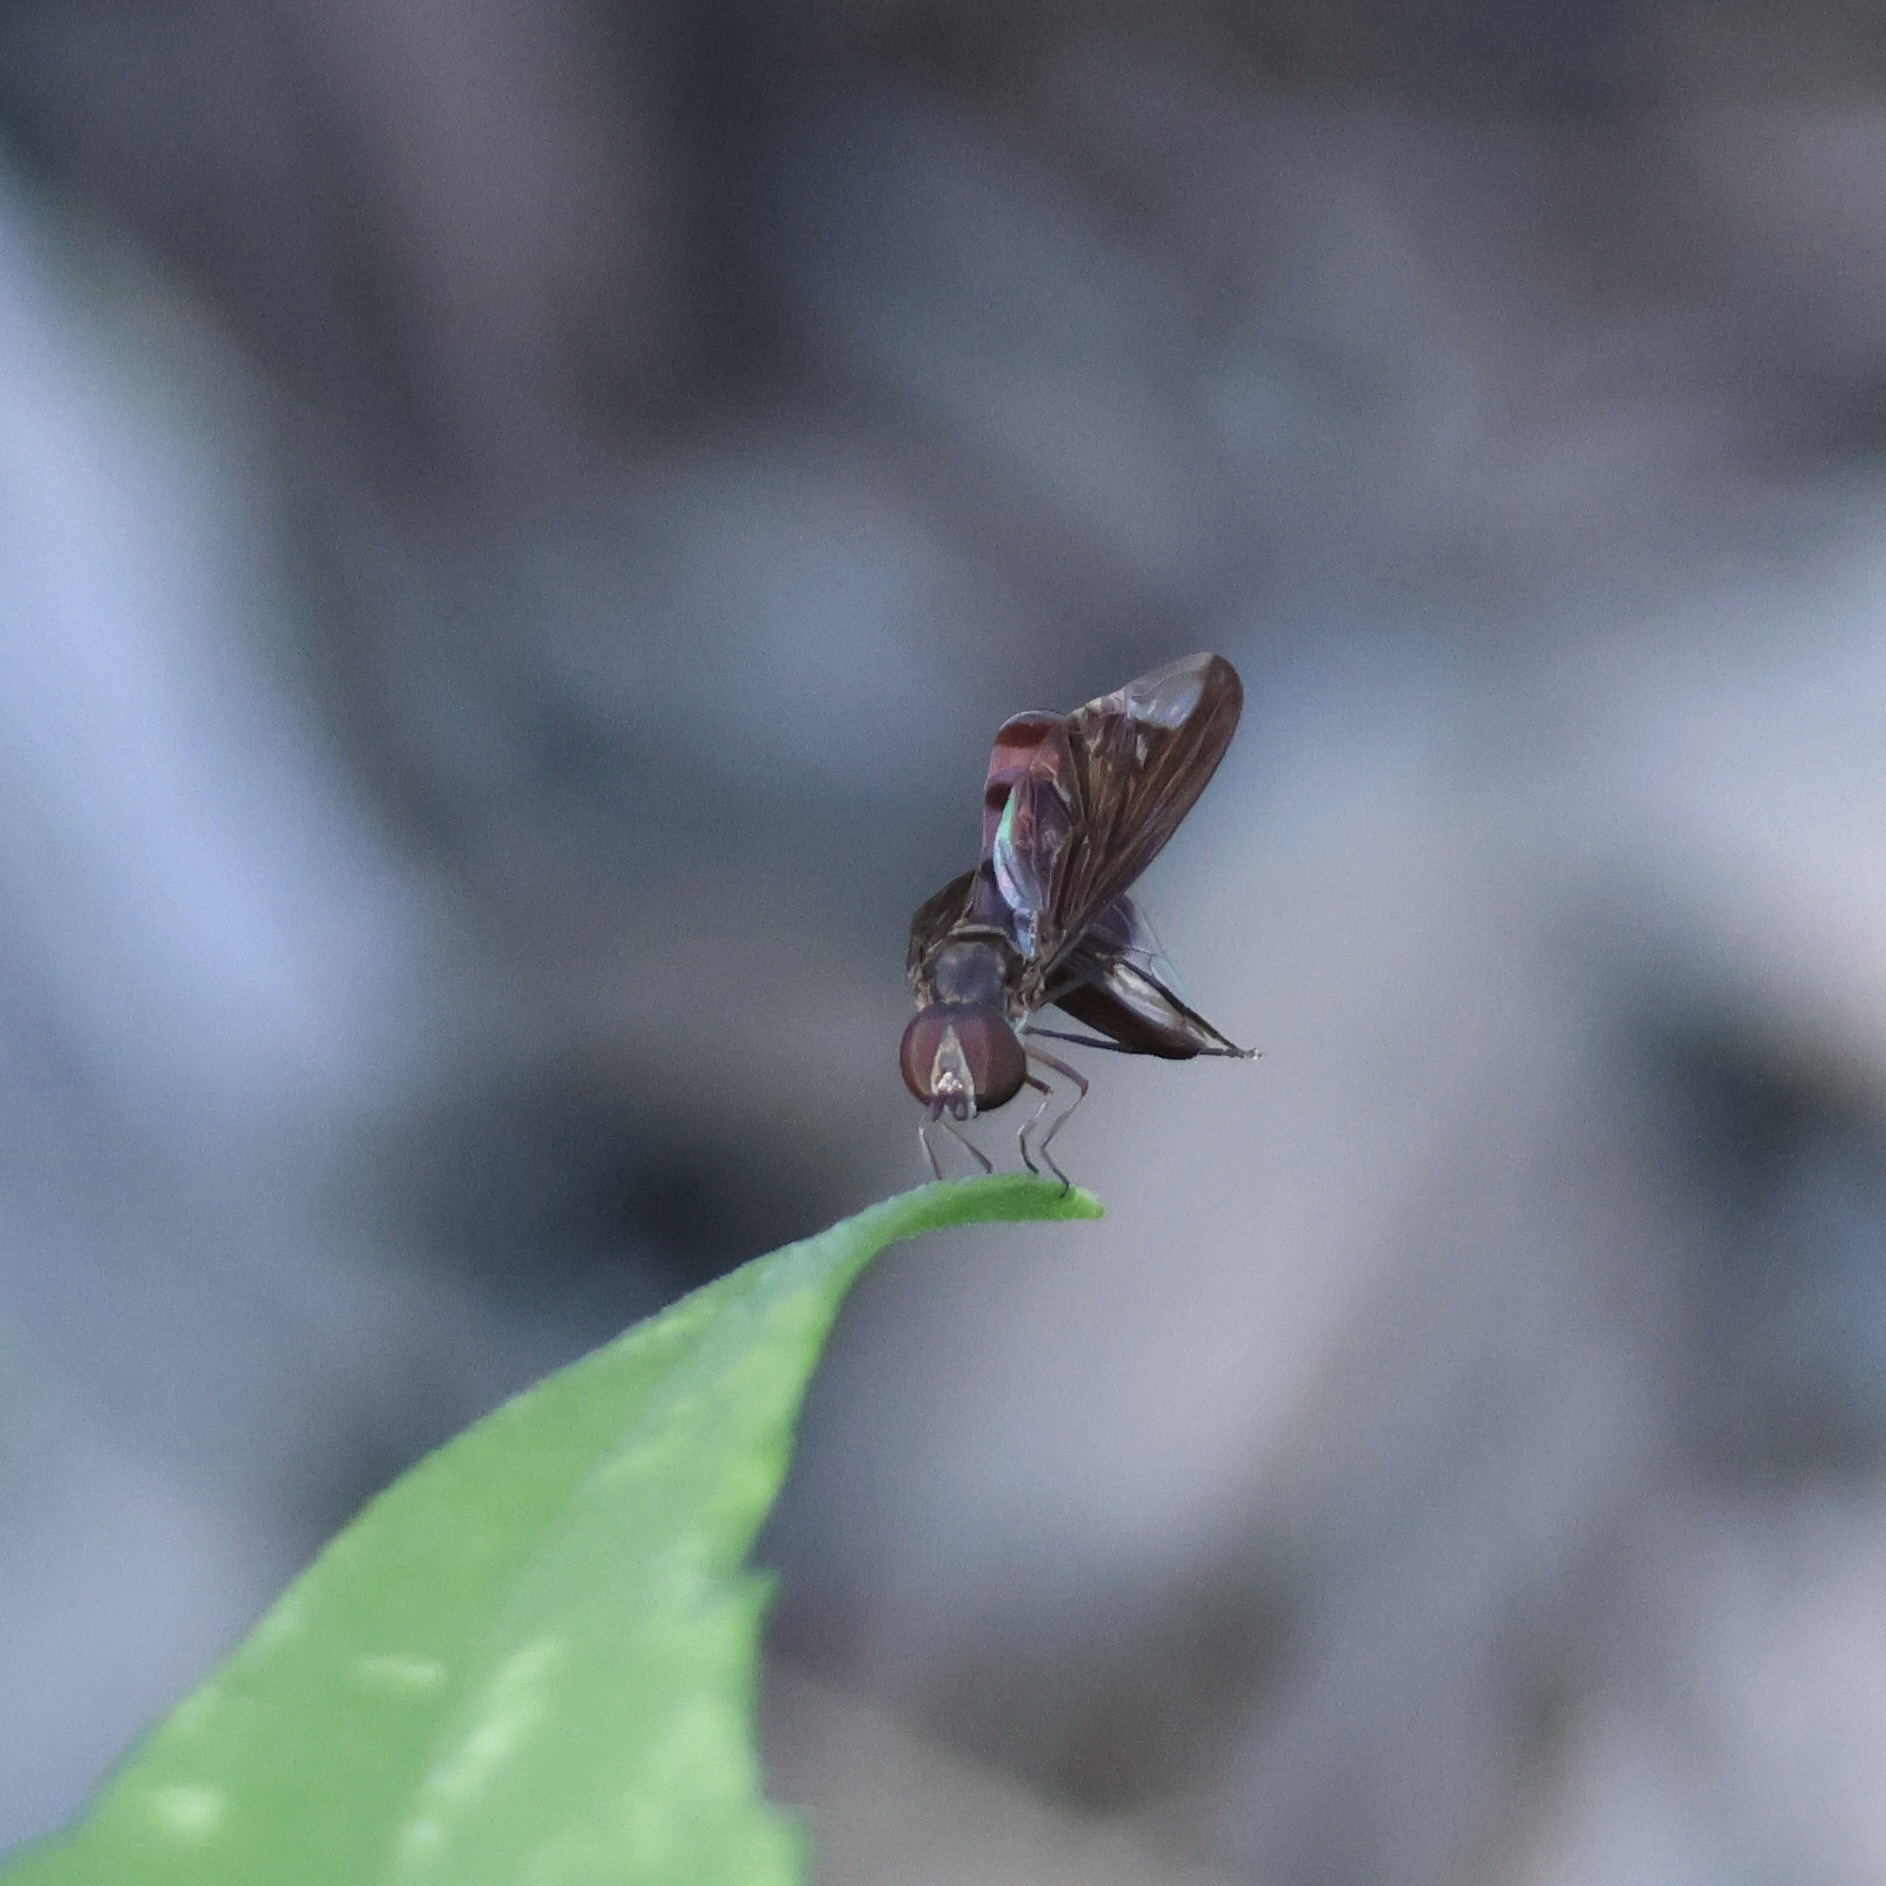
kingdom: Animalia
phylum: Arthropoda
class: Insecta
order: Diptera
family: Syrphidae
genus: Ocyptamus
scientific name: Ocyptamus fuscipennis
